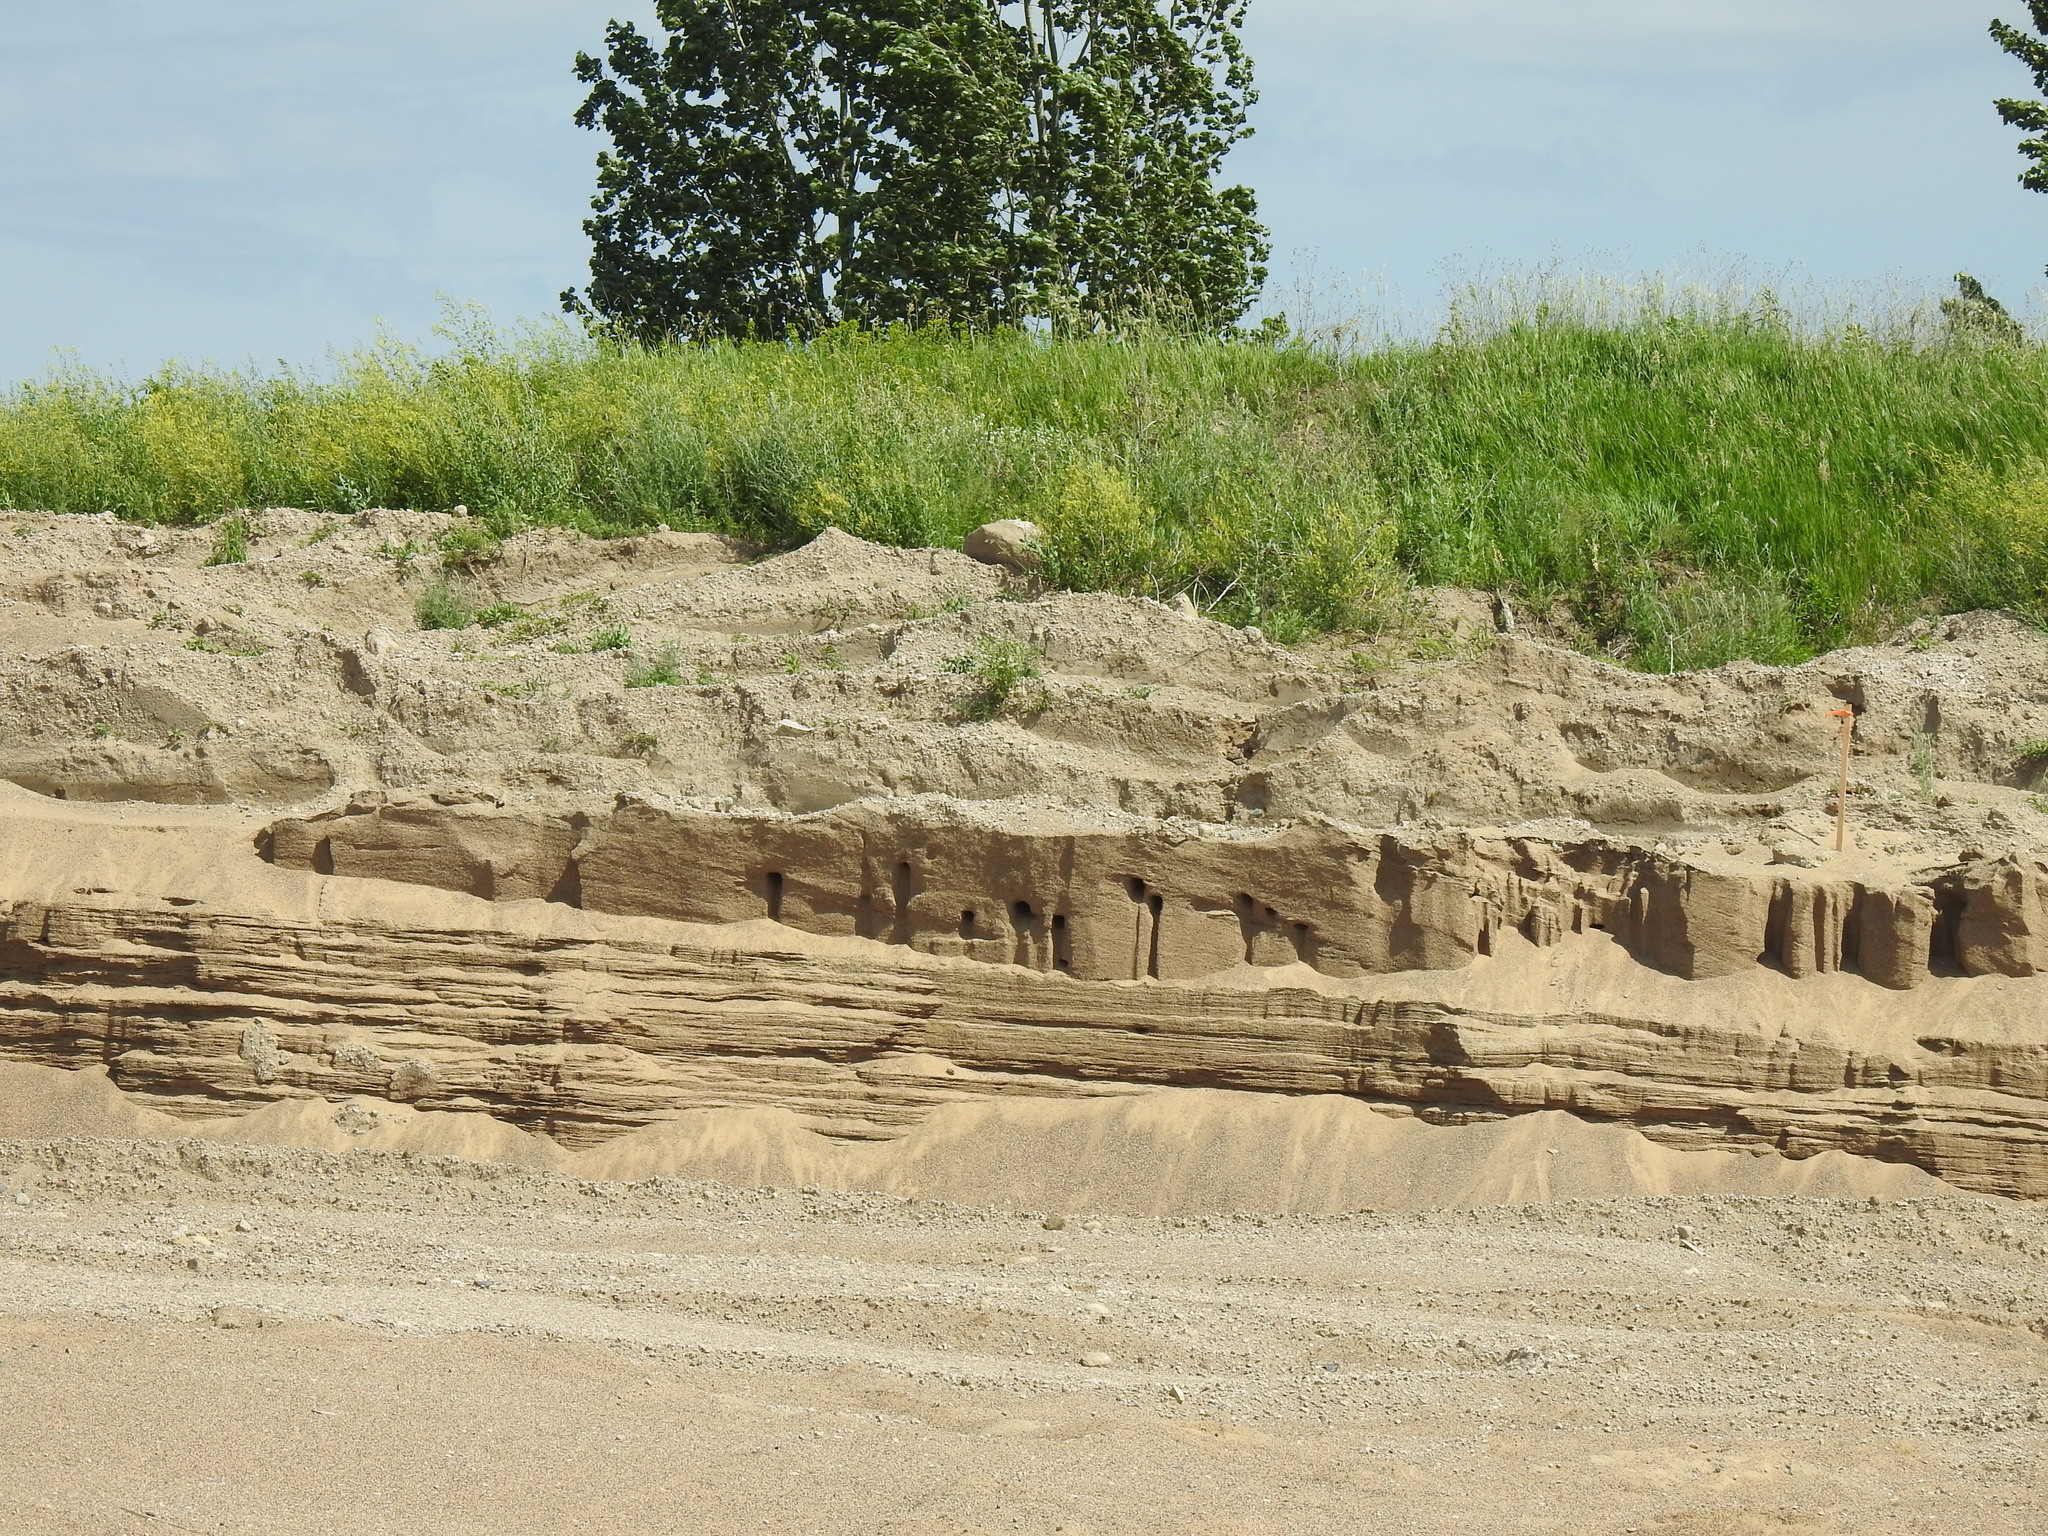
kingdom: Animalia
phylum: Chordata
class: Aves
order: Passeriformes
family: Hirundinidae
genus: Riparia
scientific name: Riparia riparia
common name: Sand martin
